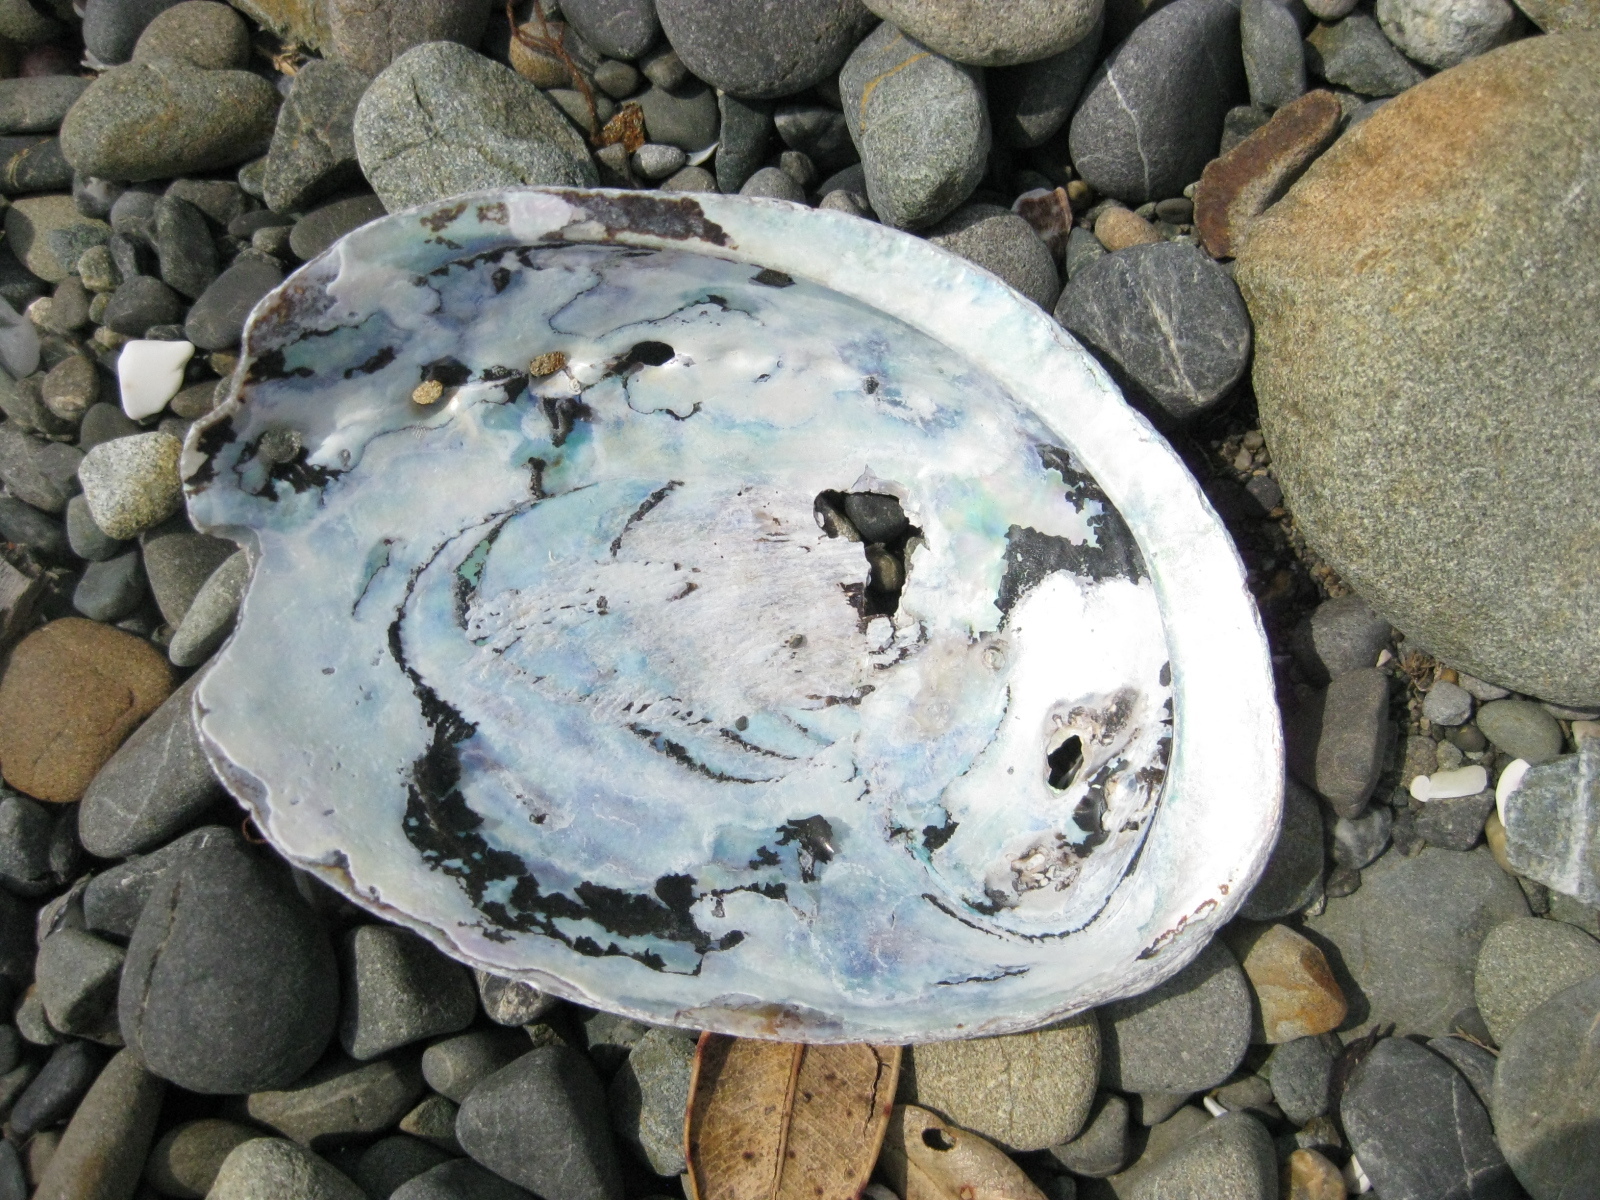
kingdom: Animalia
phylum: Mollusca
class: Gastropoda
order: Lepetellida
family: Haliotidae
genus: Haliotis
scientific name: Haliotis iris
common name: Abalone
